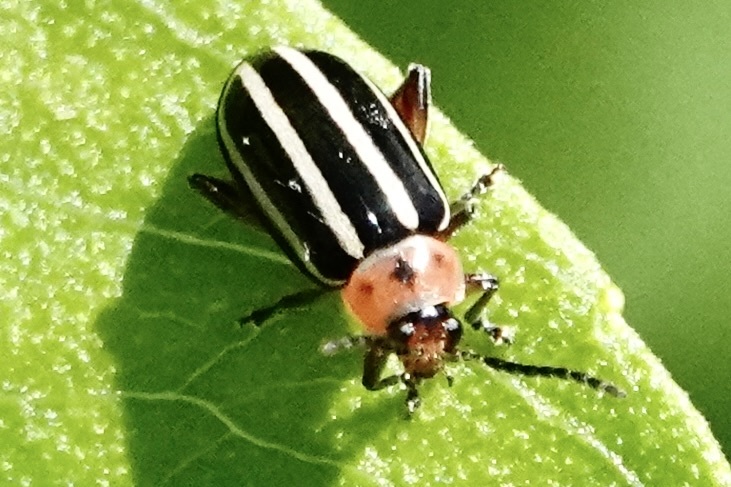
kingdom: Animalia
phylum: Arthropoda
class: Insecta
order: Coleoptera
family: Chrysomelidae
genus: Disonycha
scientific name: Disonycha glabrata
